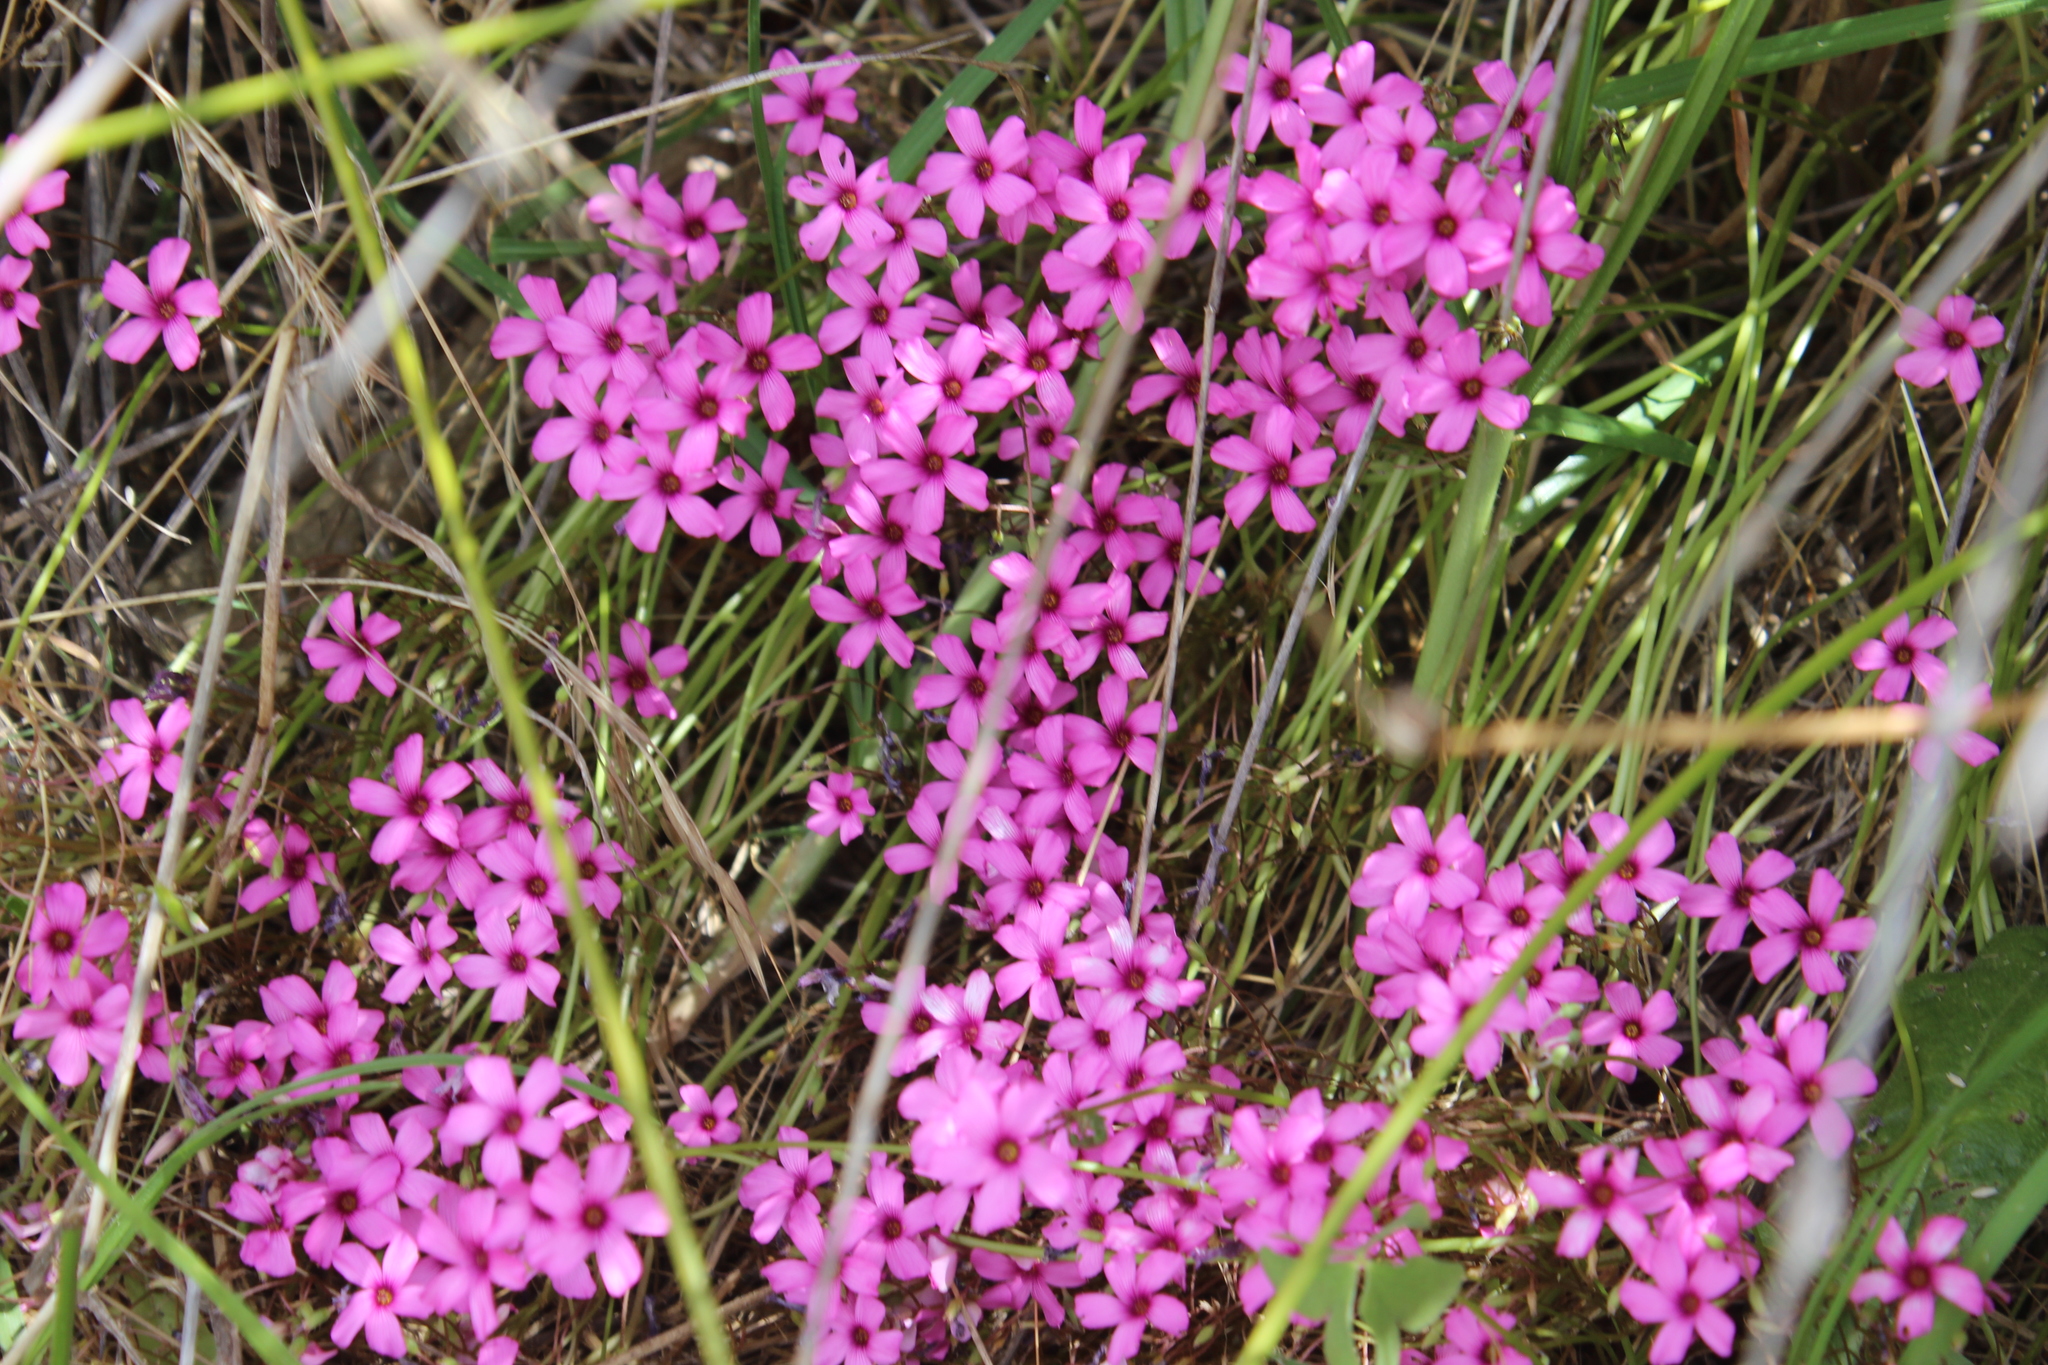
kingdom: Plantae
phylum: Tracheophyta
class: Magnoliopsida
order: Oxalidales
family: Oxalidaceae
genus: Oxalis
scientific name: Oxalis articulata
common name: Pink-sorrel
